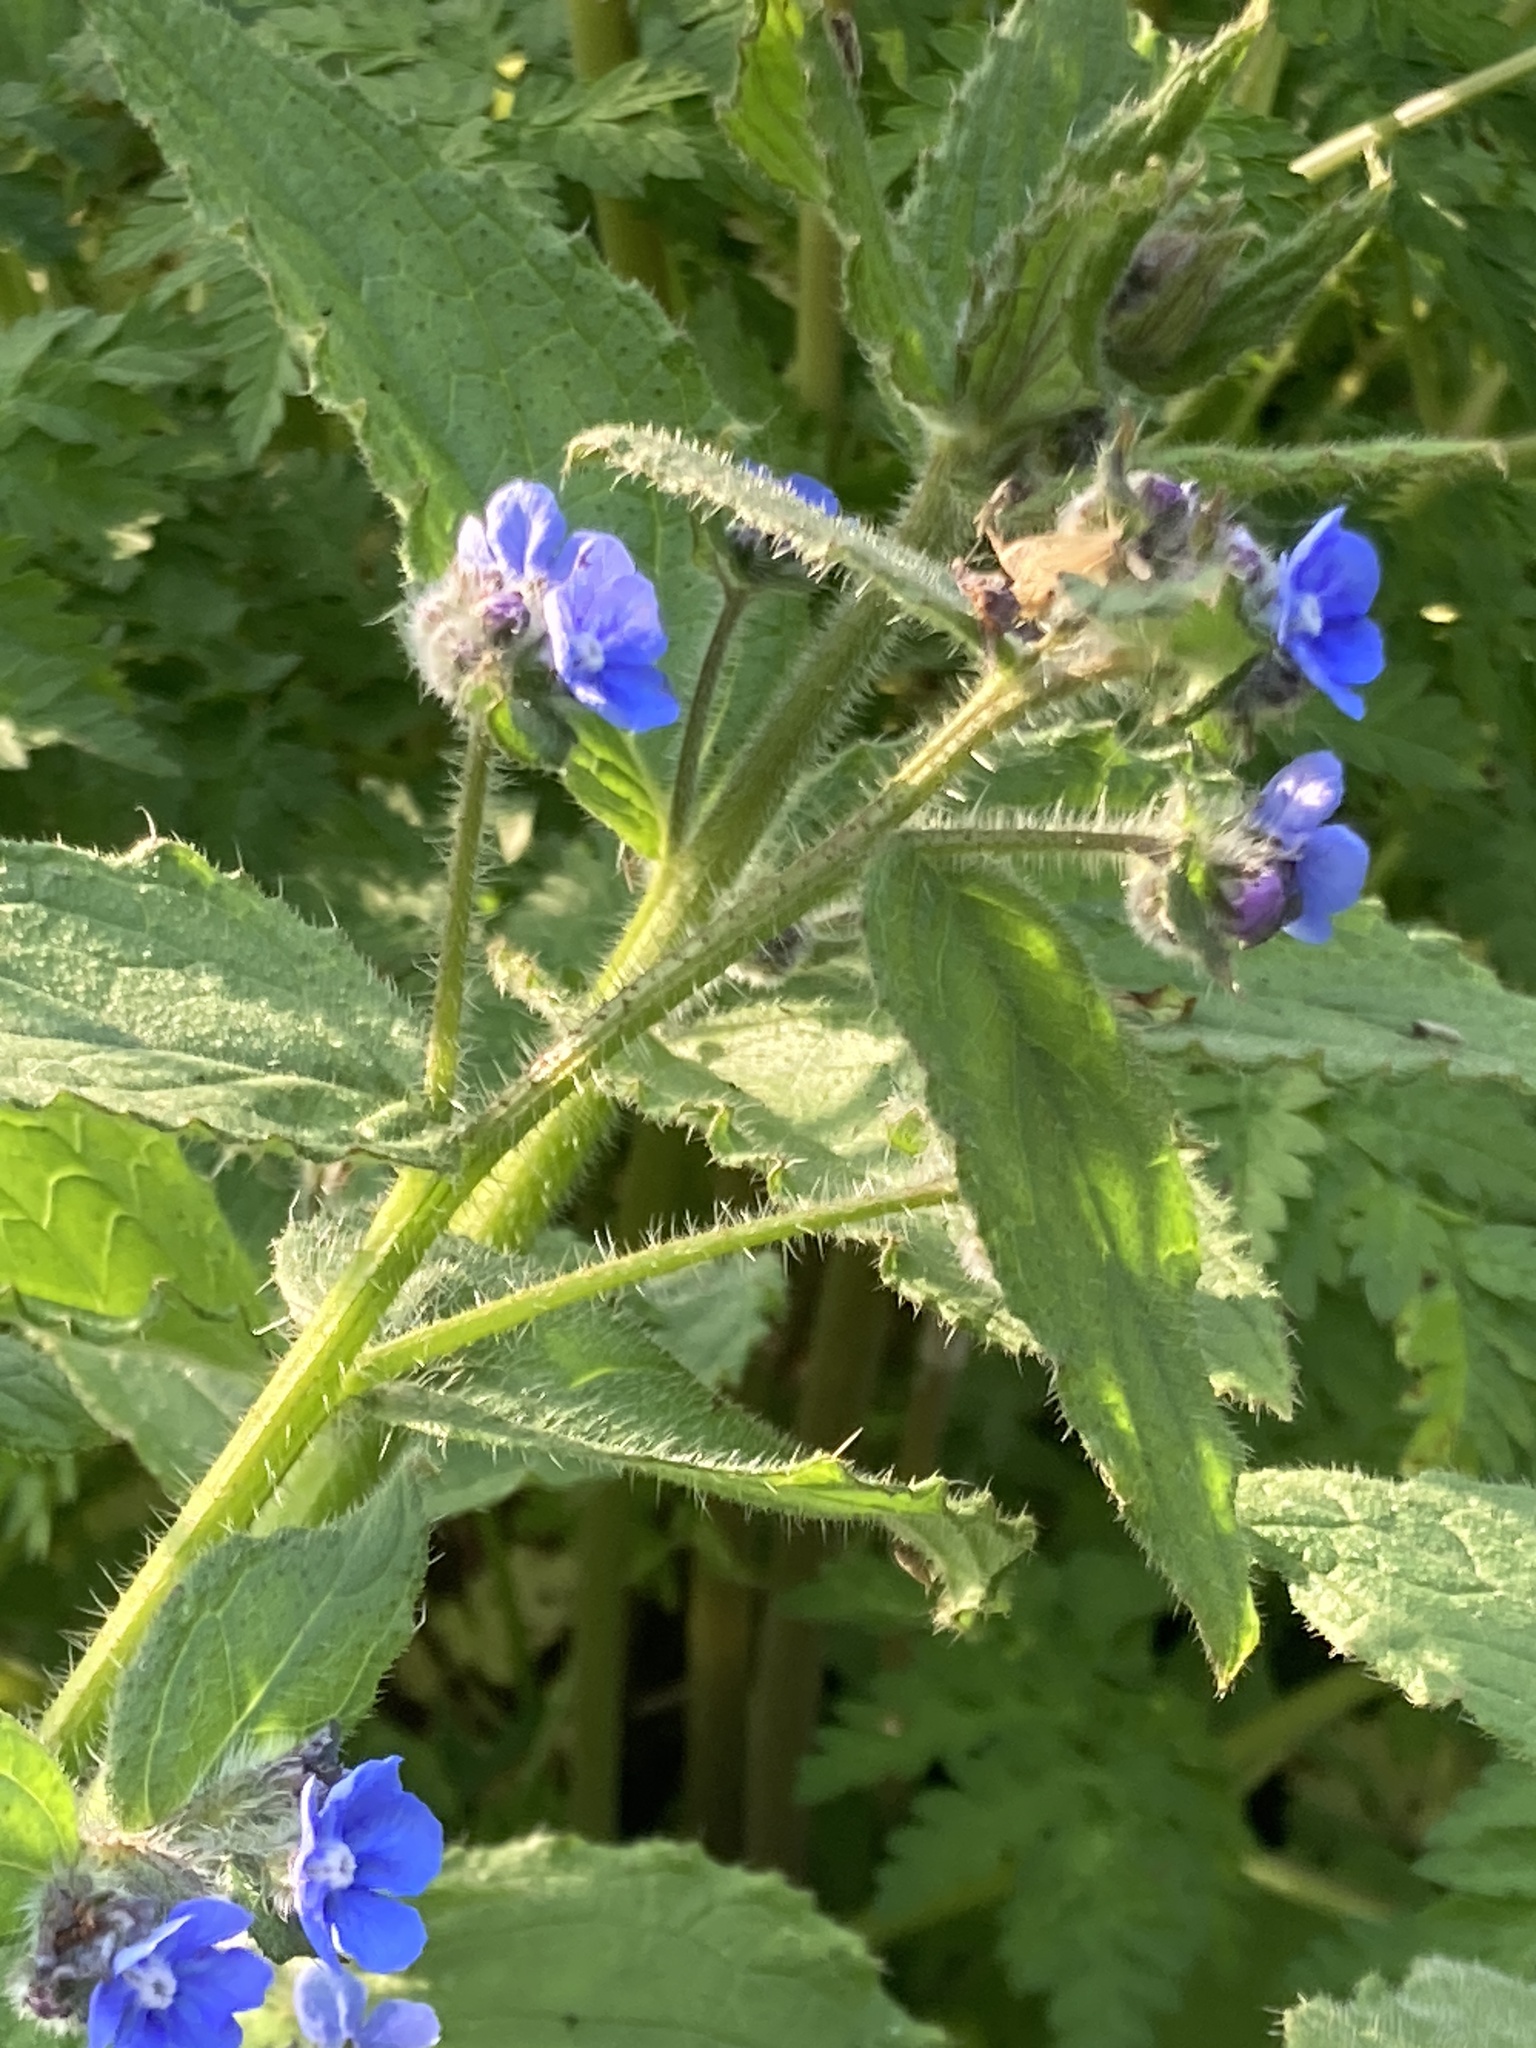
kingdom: Plantae
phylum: Tracheophyta
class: Magnoliopsida
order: Boraginales
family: Boraginaceae
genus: Pentaglottis
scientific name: Pentaglottis sempervirens
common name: Green alkanet
